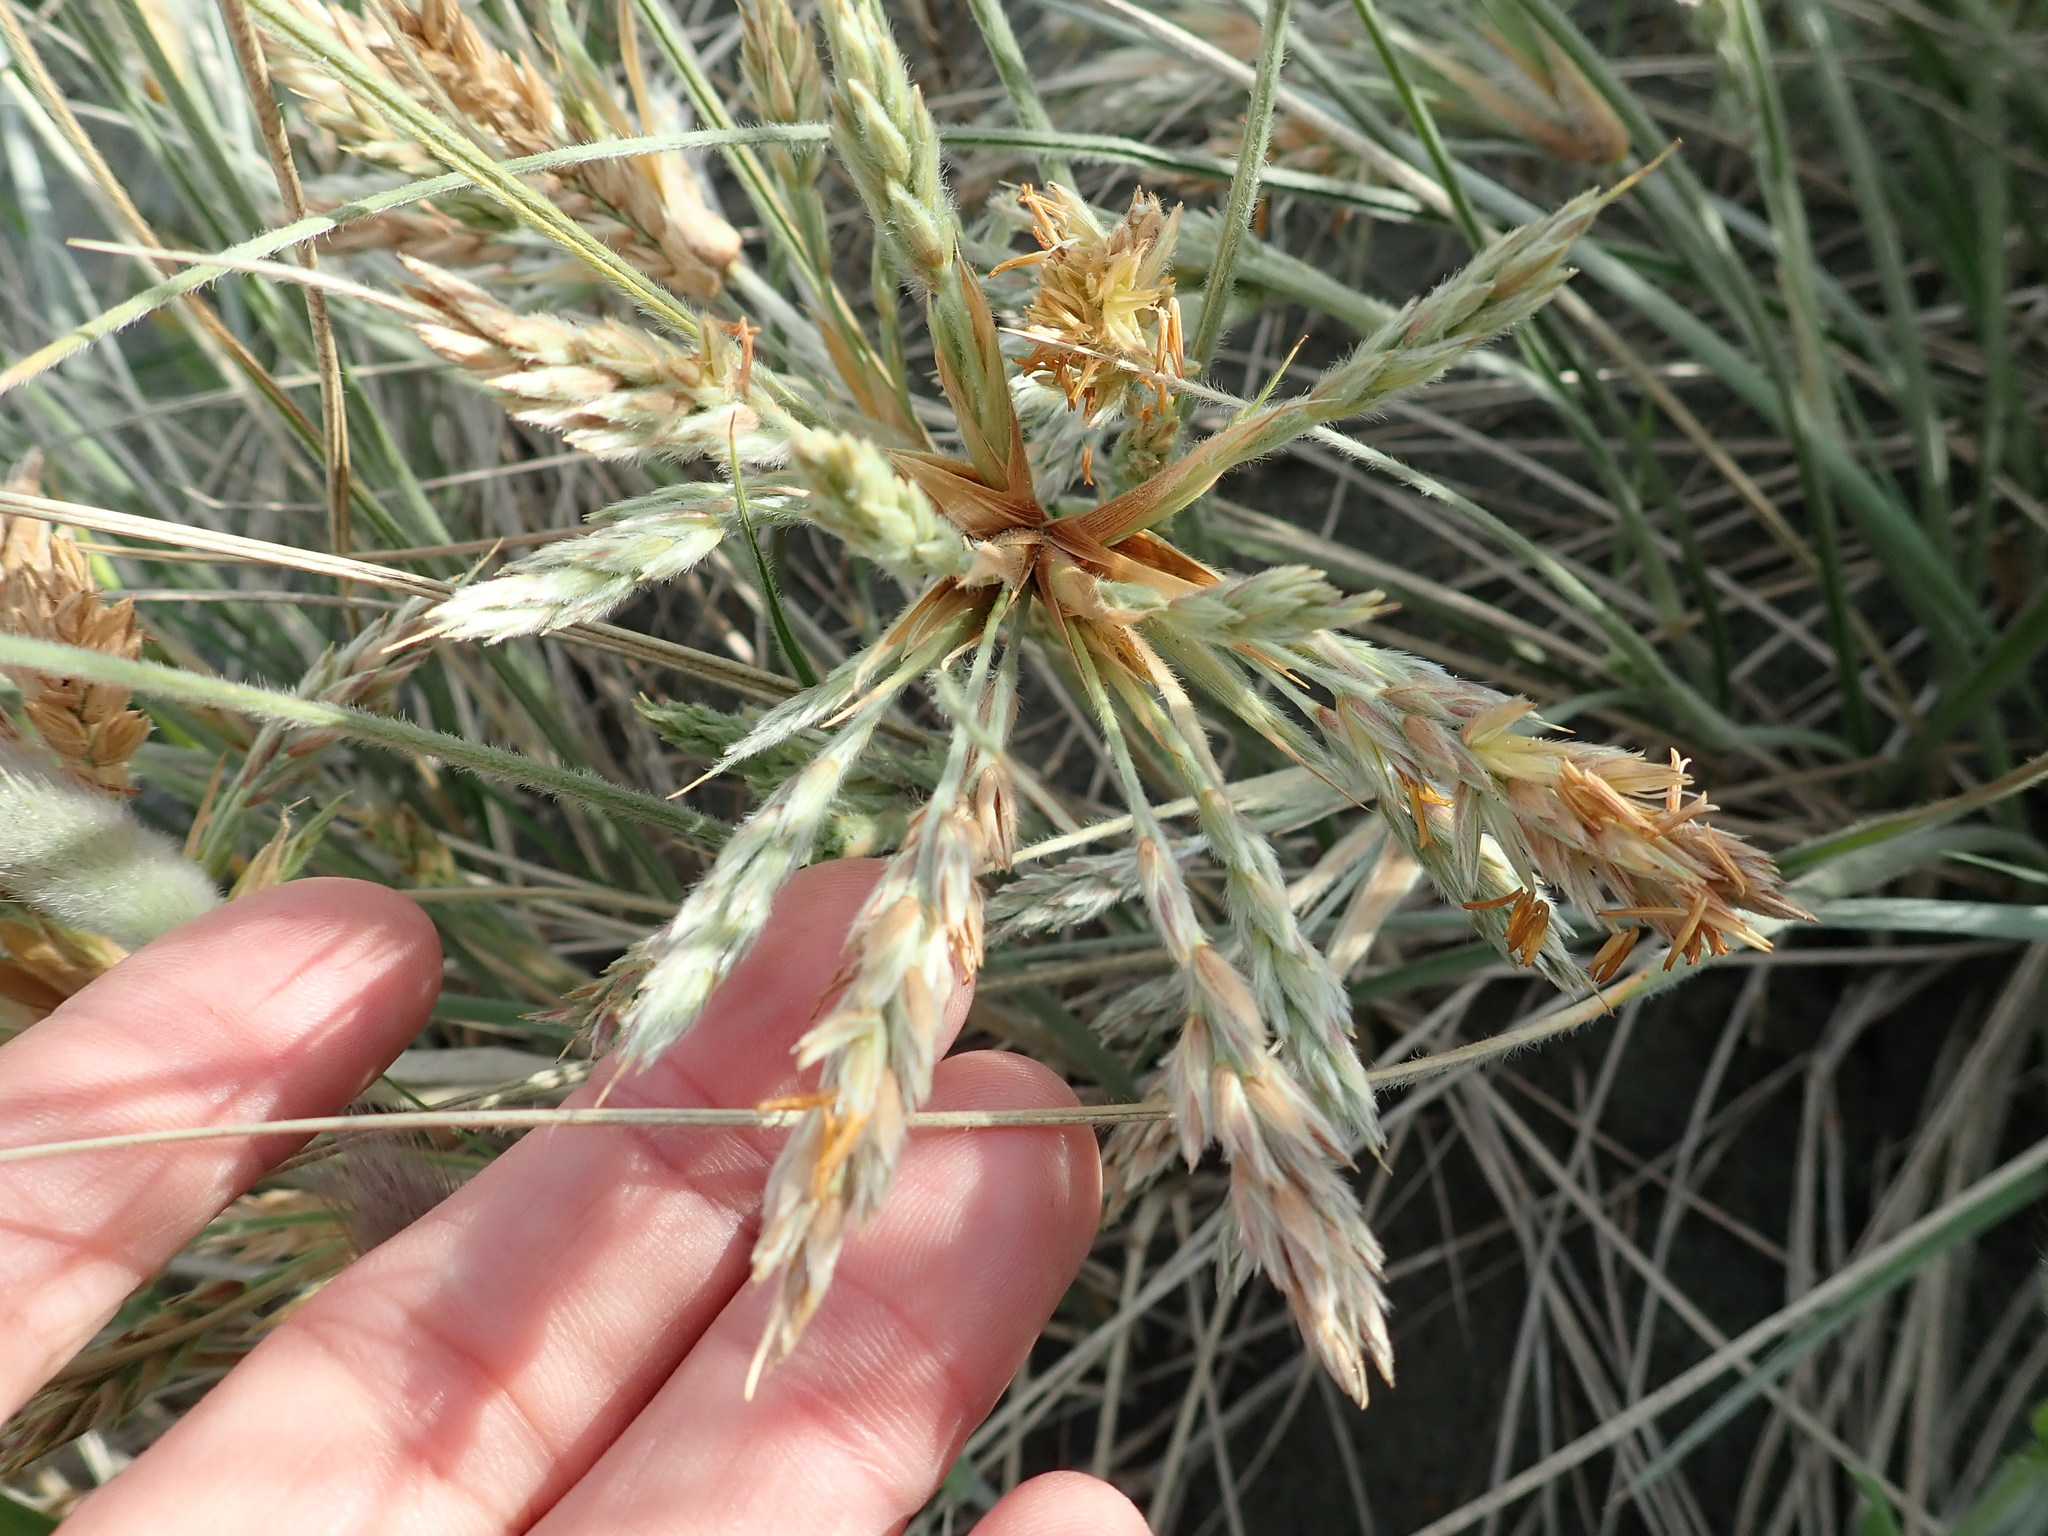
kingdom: Plantae
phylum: Tracheophyta
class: Liliopsida
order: Poales
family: Poaceae
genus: Spinifex
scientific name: Spinifex sericeus
